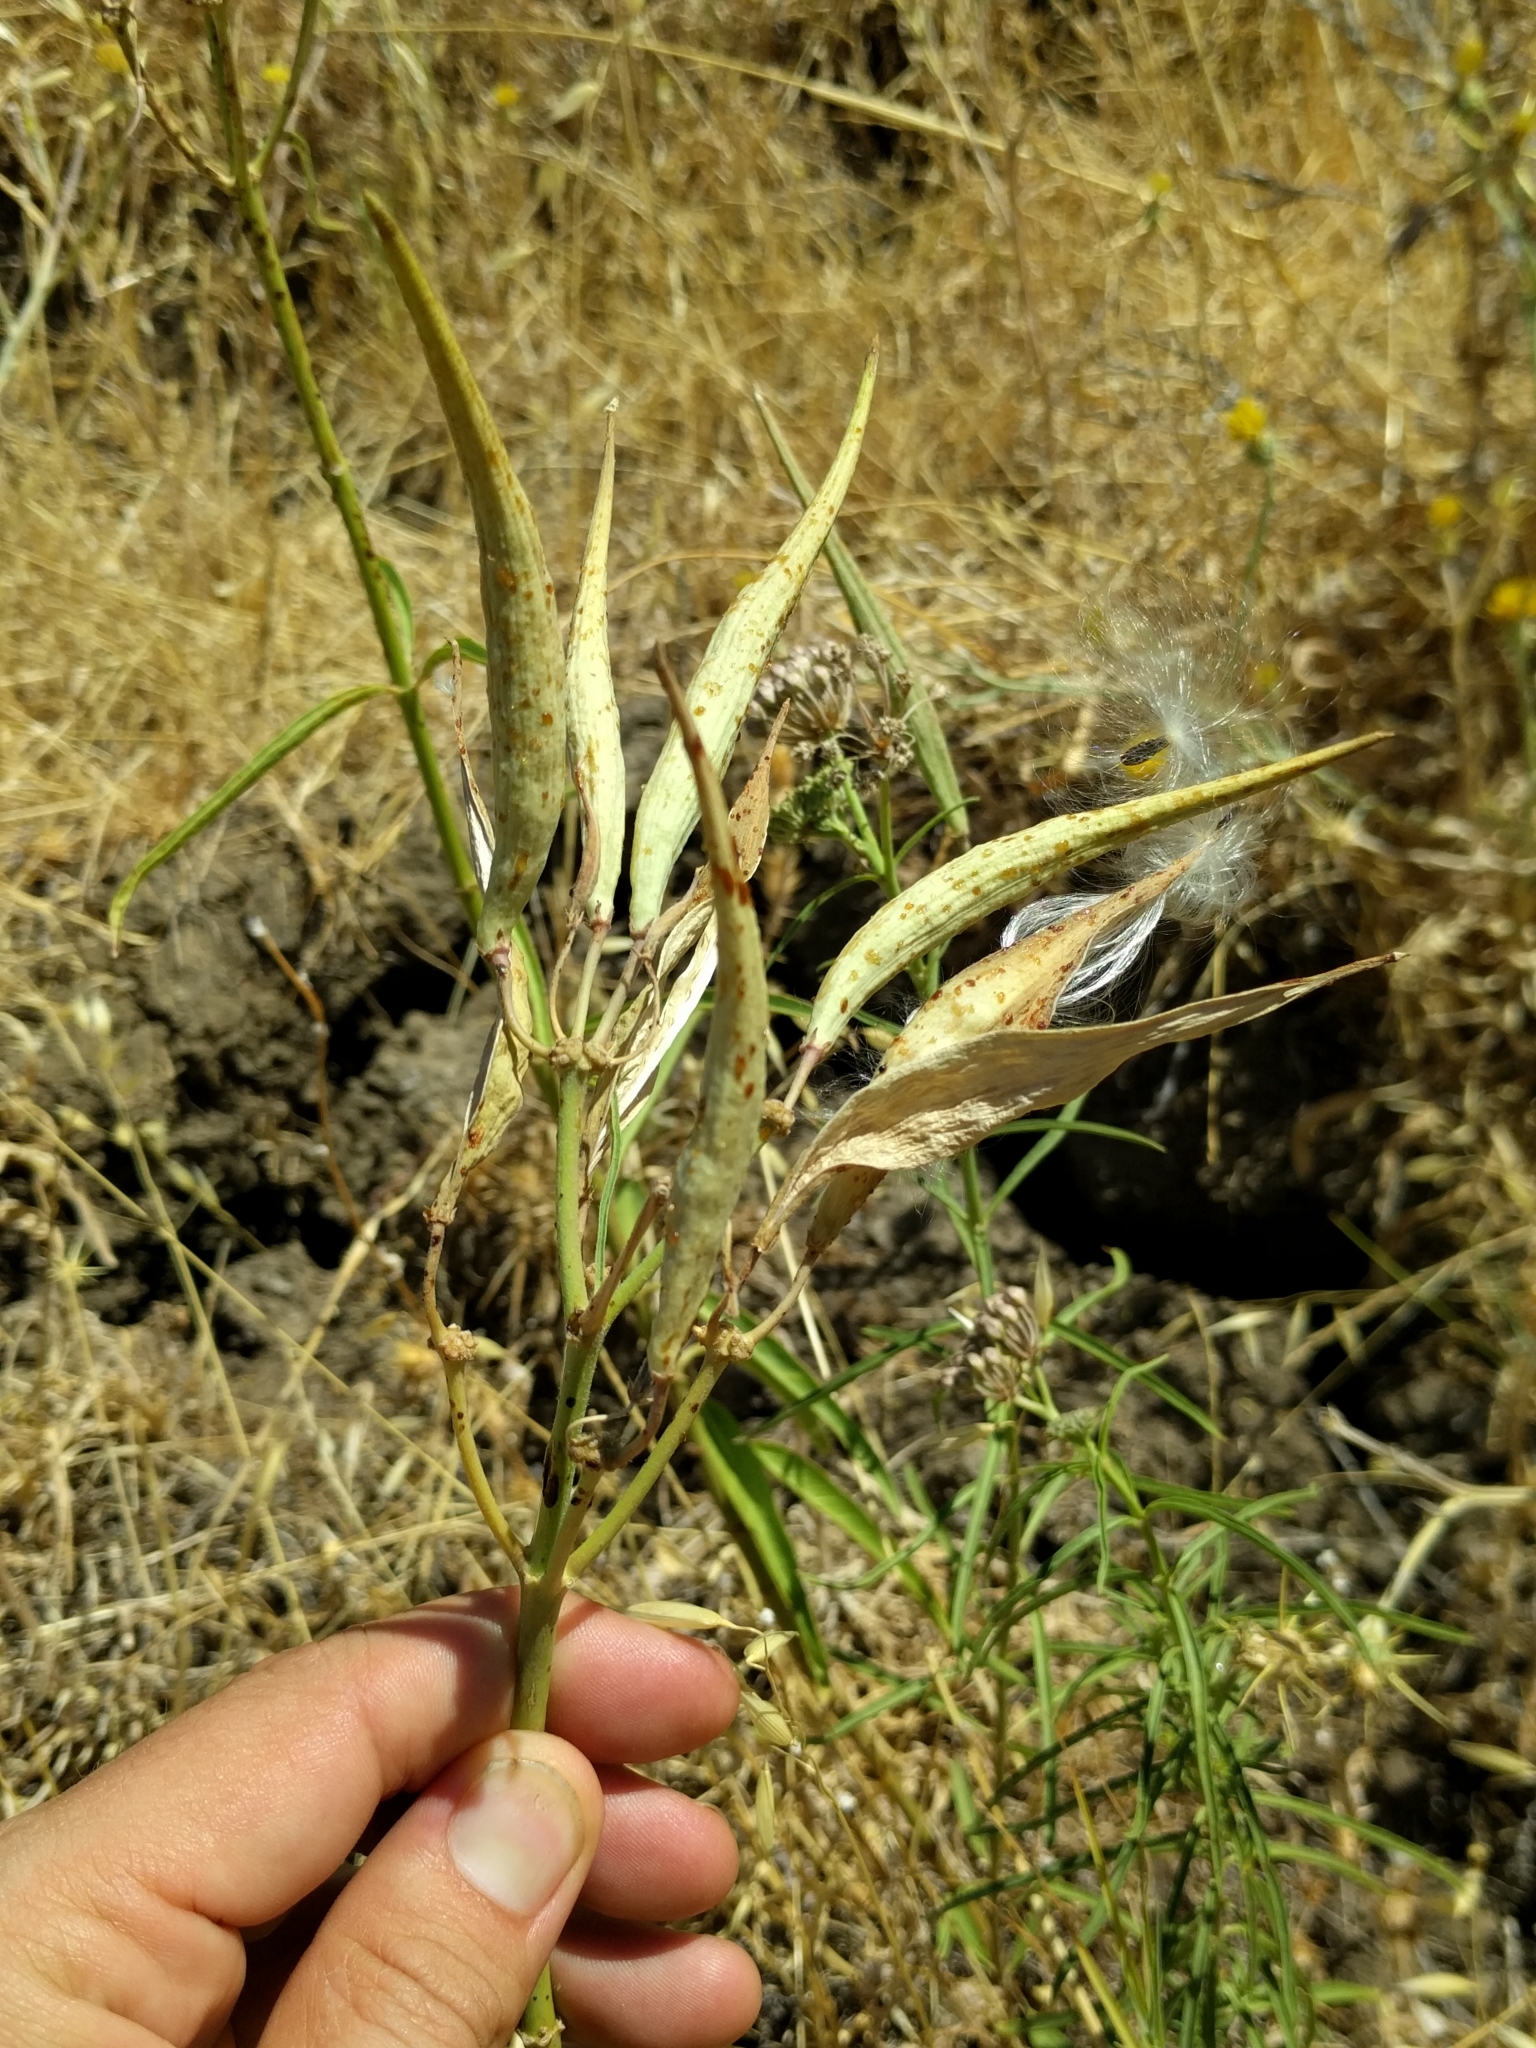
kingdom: Plantae
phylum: Tracheophyta
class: Magnoliopsida
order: Gentianales
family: Apocynaceae
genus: Asclepias
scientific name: Asclepias fascicularis
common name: Mexican milkweed
